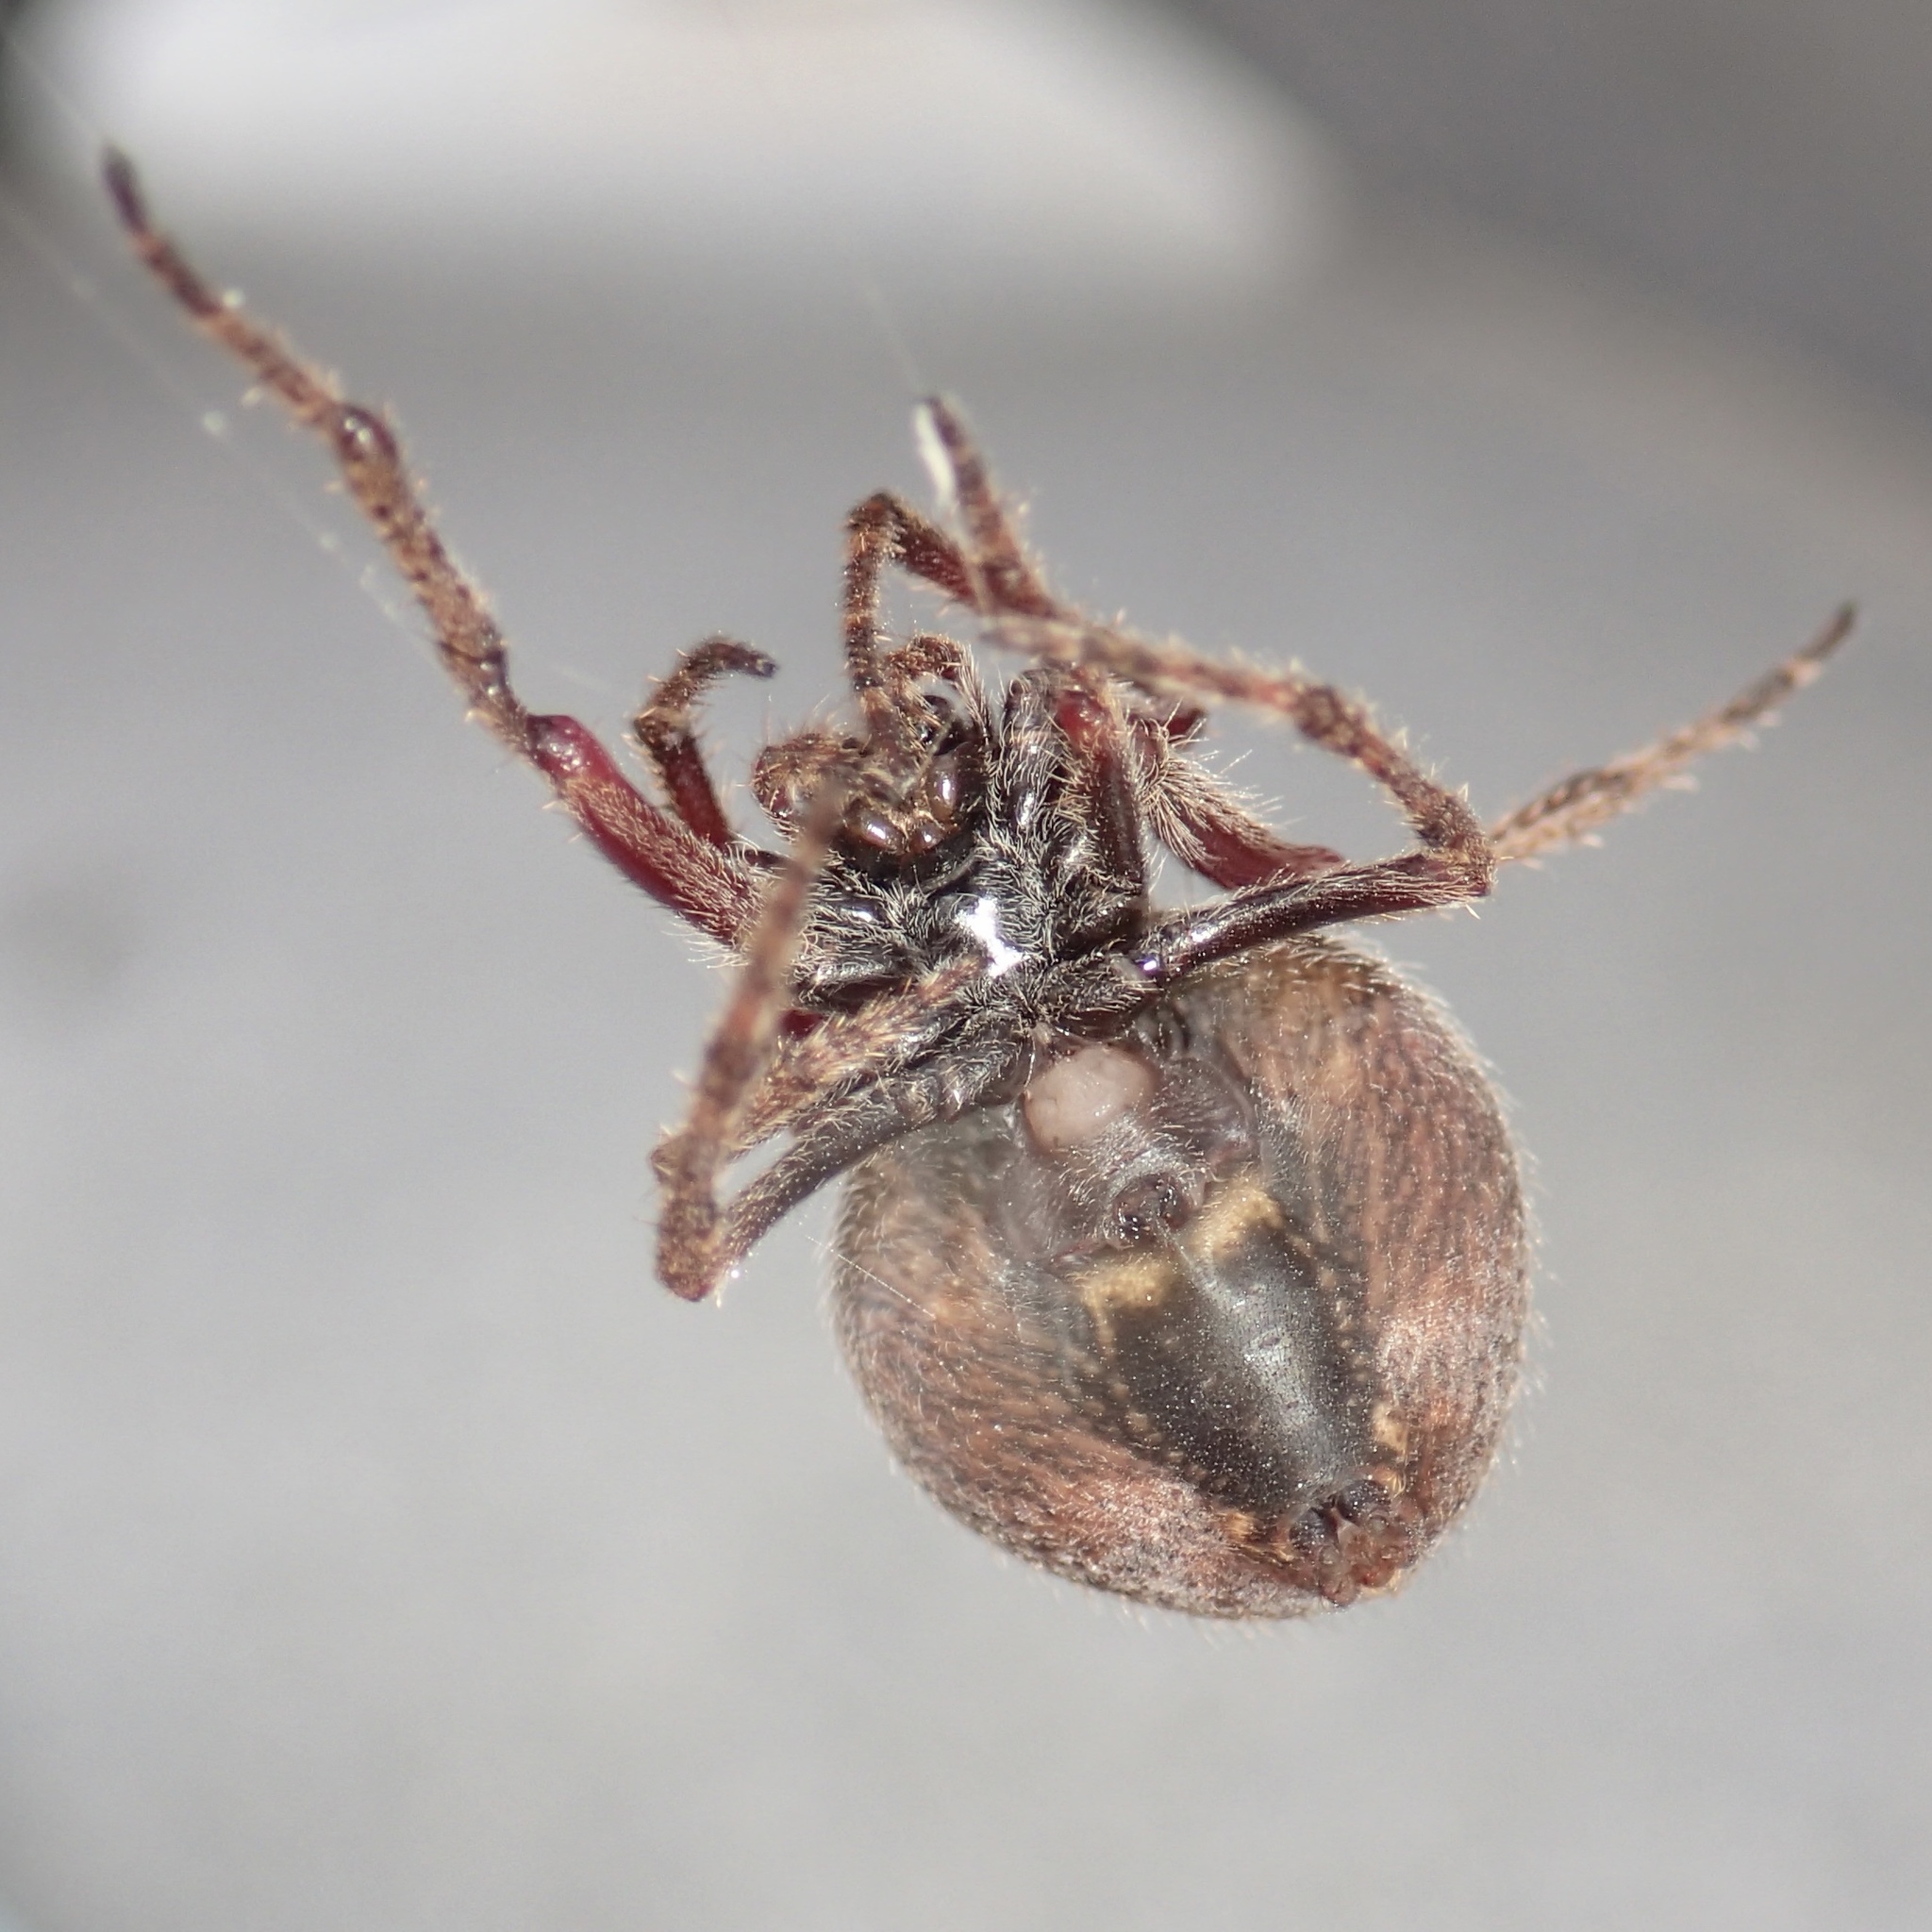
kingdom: Animalia
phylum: Arthropoda
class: Arachnida
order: Araneae
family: Araneidae
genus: Eriophora
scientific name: Eriophora pustulosa
